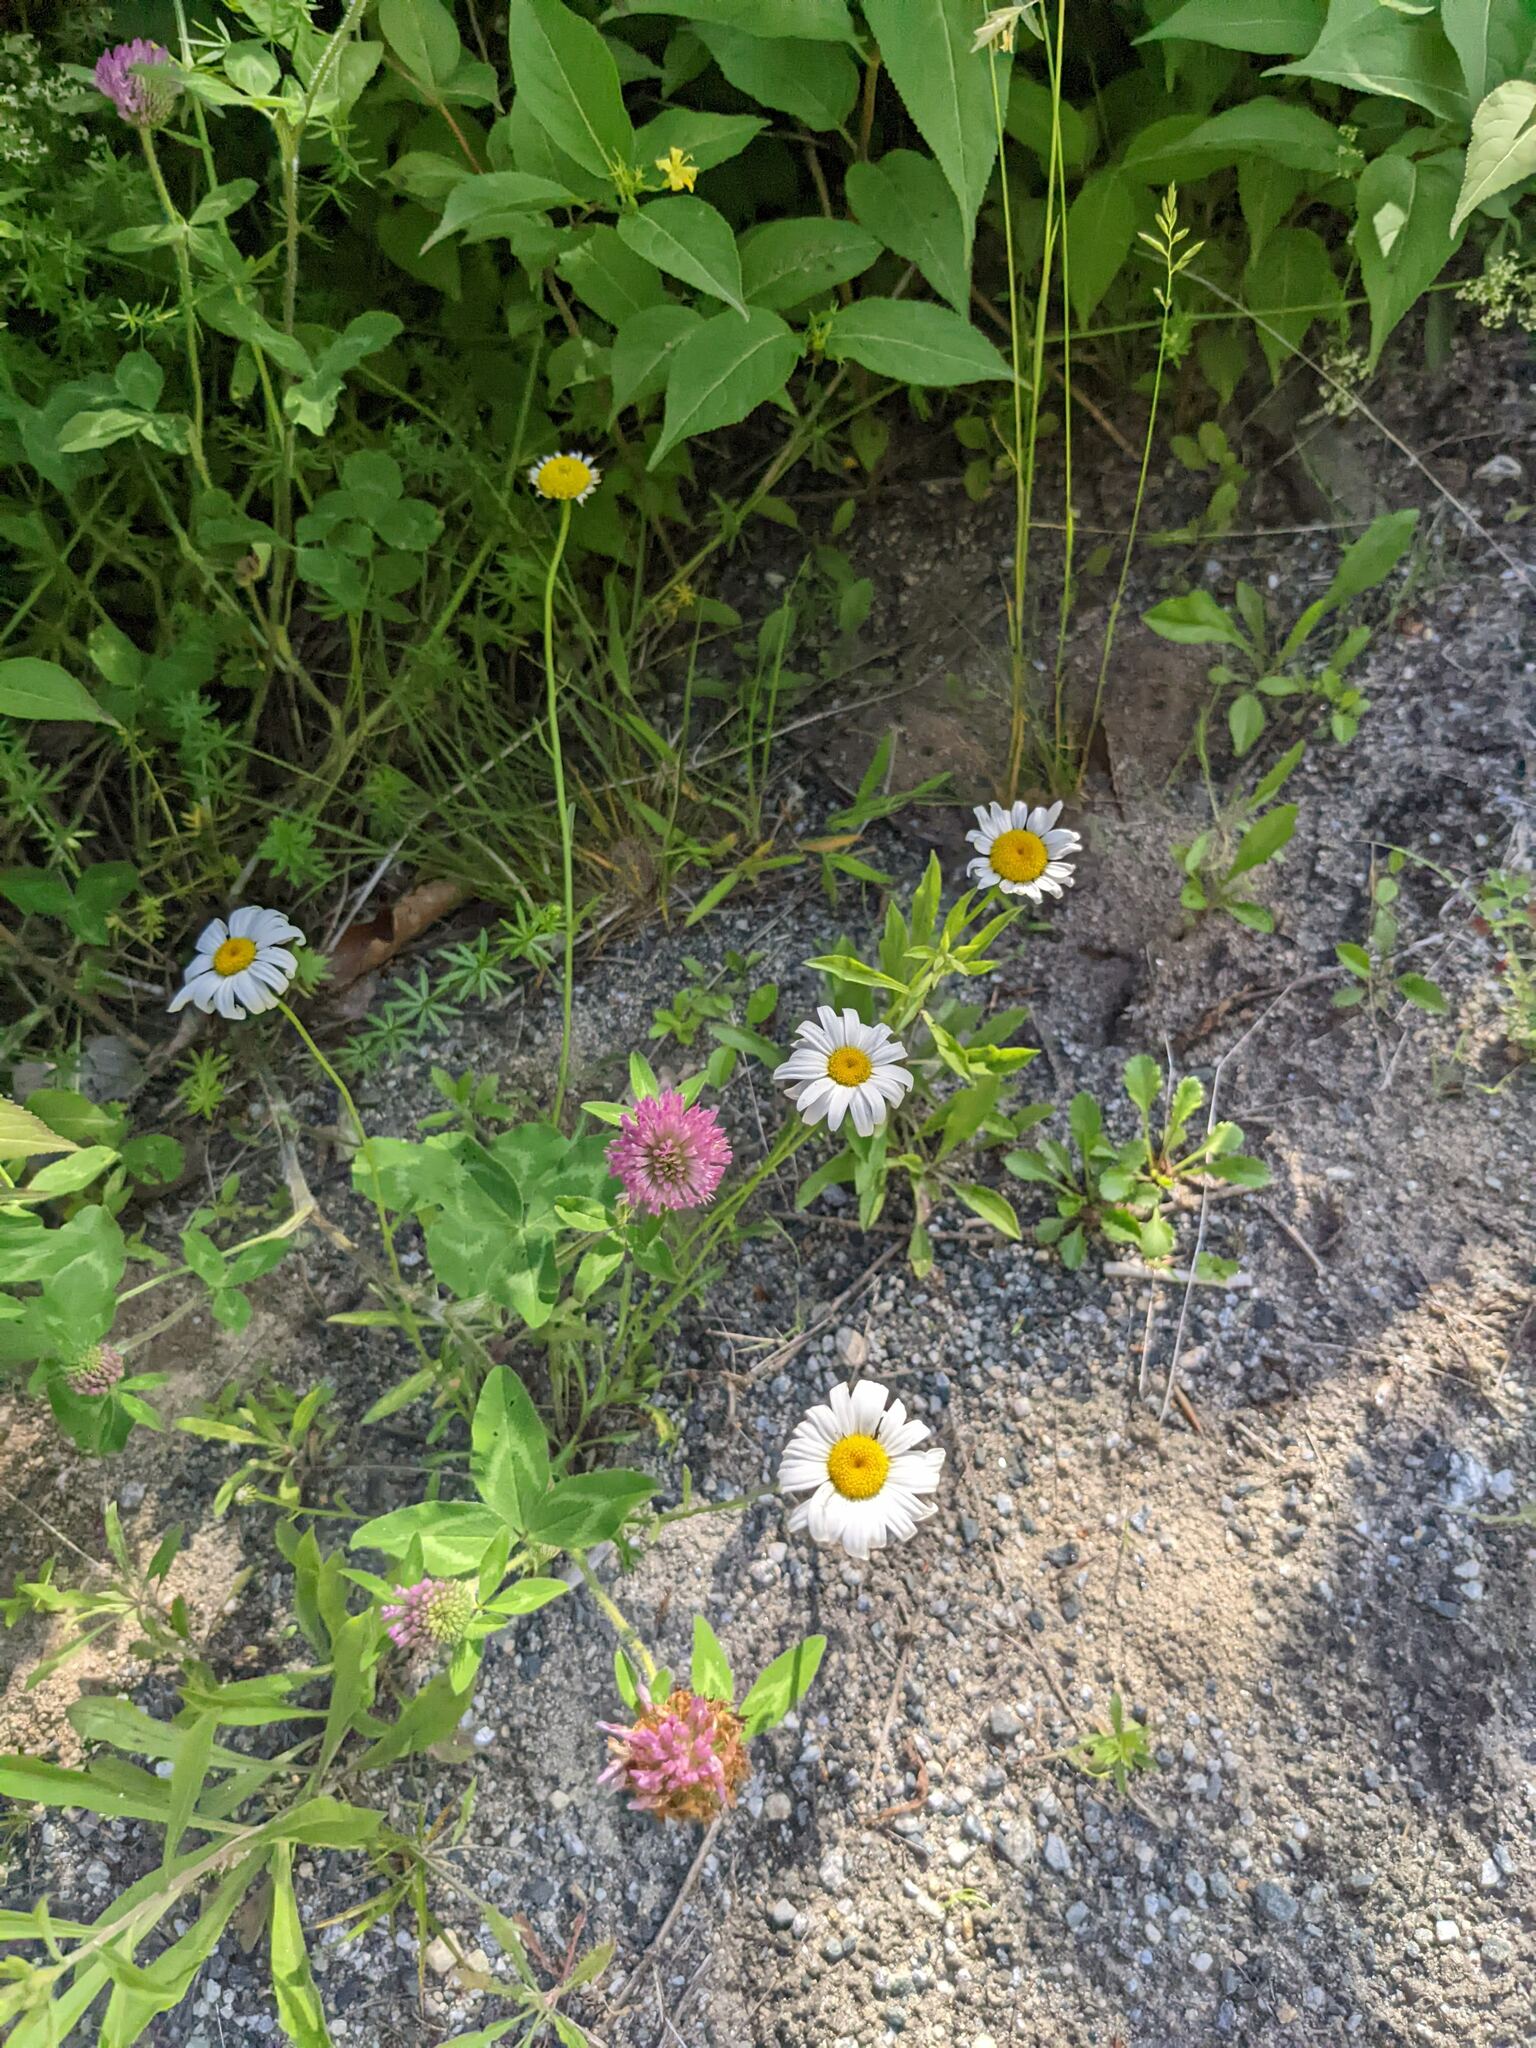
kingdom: Plantae
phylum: Tracheophyta
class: Magnoliopsida
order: Asterales
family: Asteraceae
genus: Leucanthemum
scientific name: Leucanthemum vulgare
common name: Oxeye daisy
